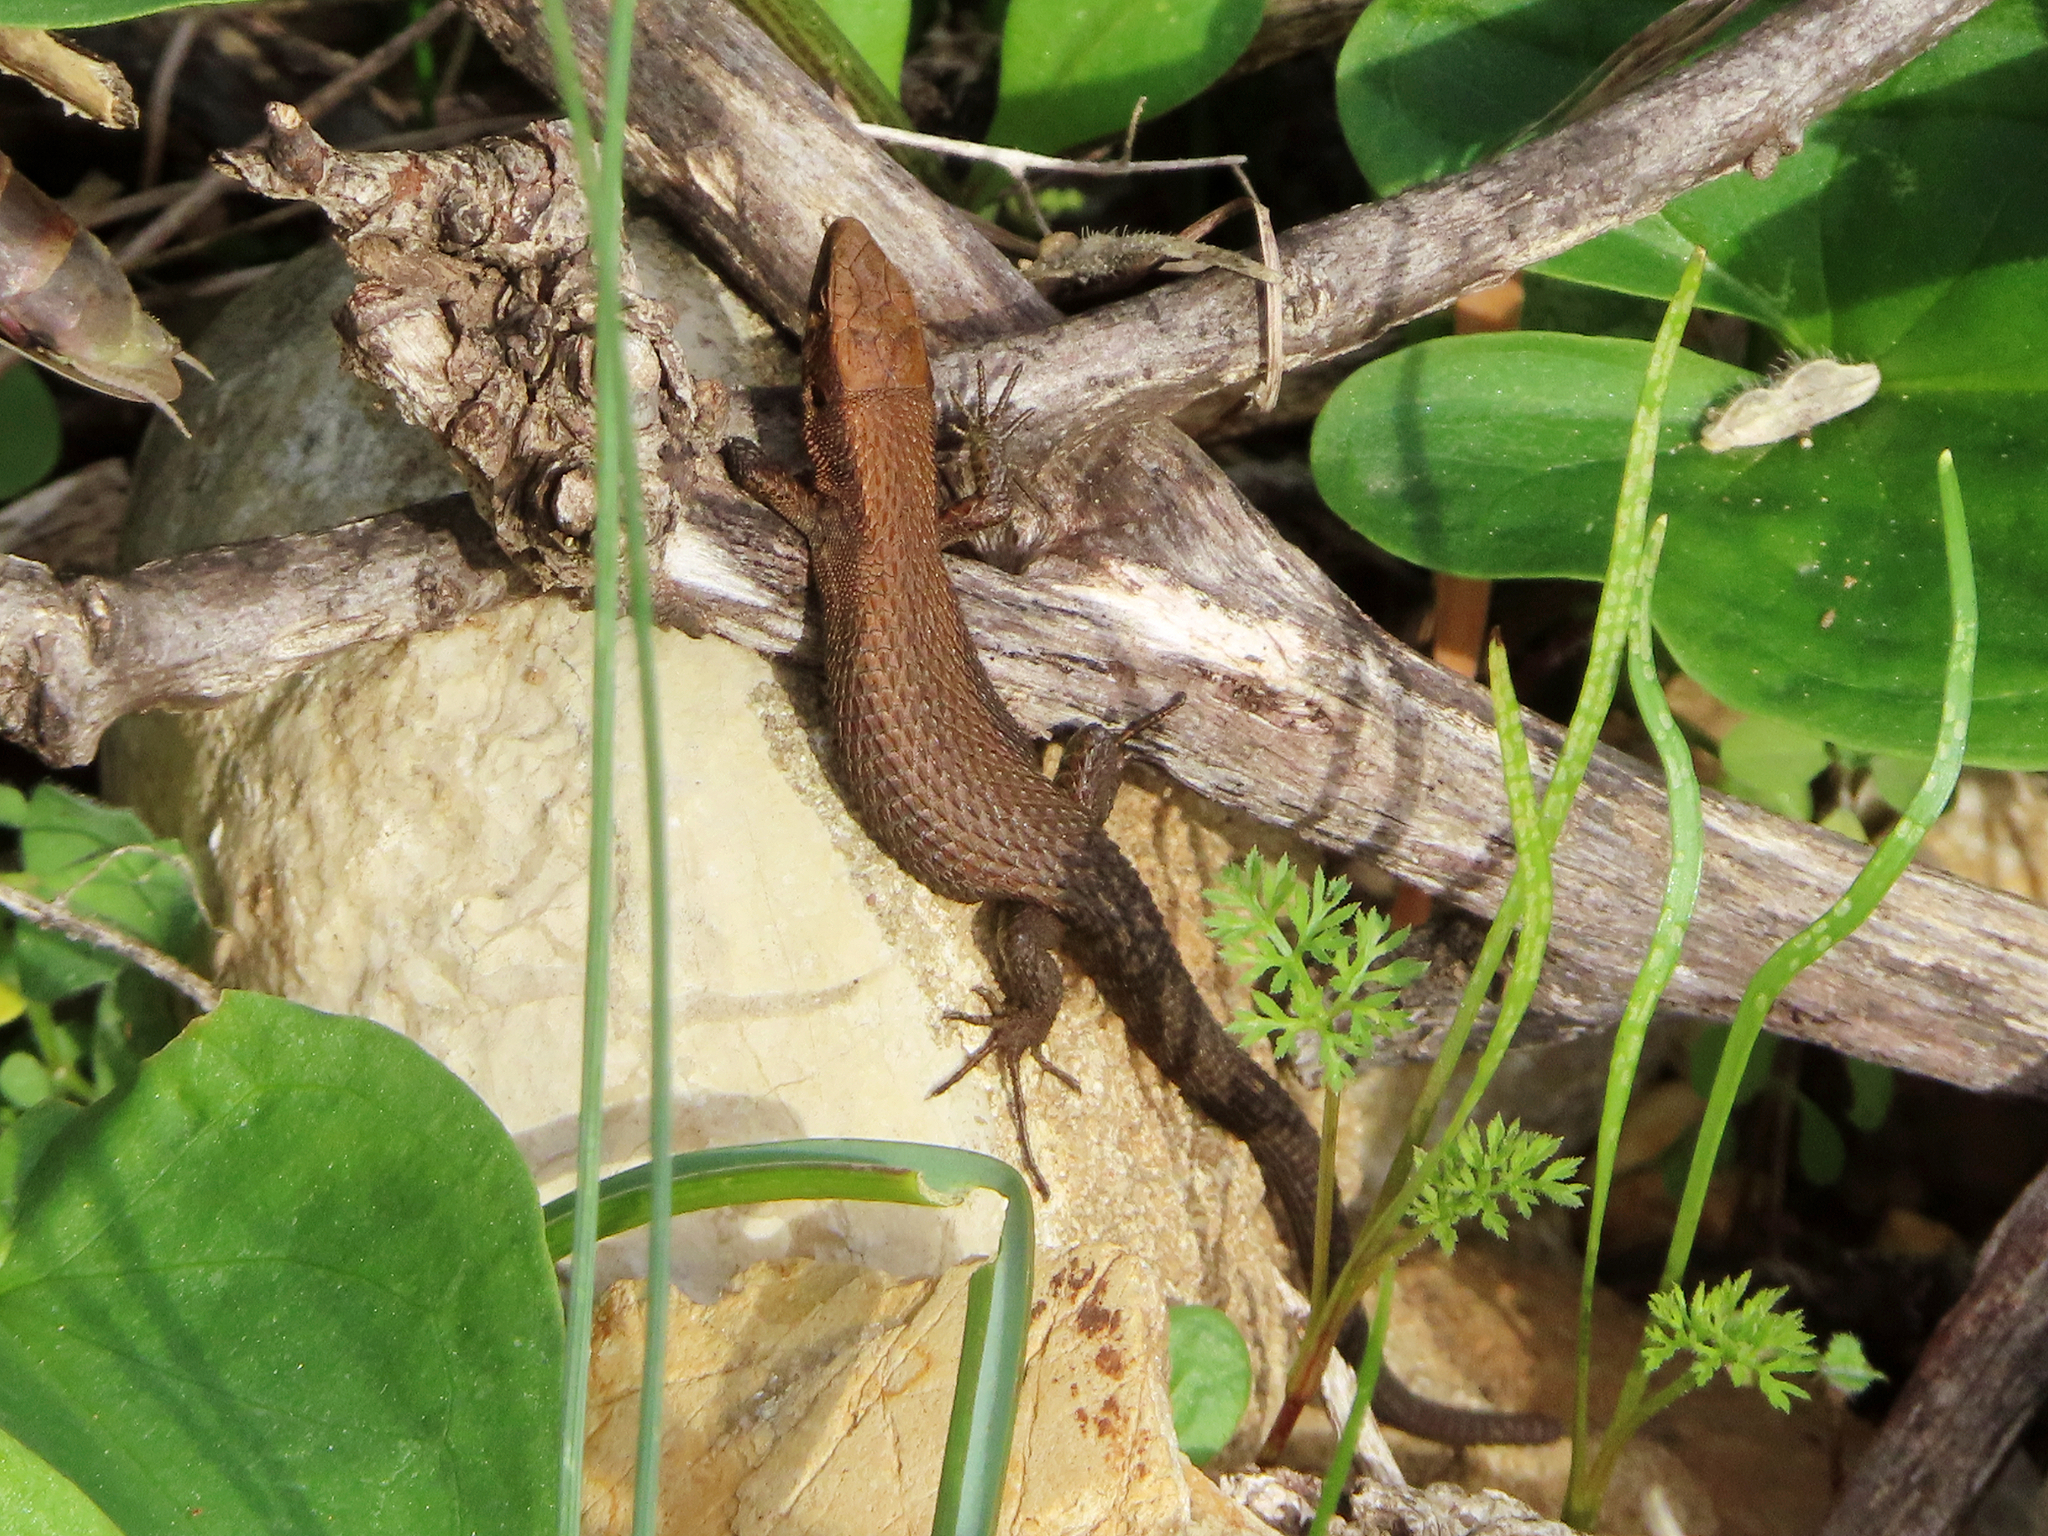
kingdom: Animalia
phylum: Chordata
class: Squamata
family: Lacertidae
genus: Algyroides
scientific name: Algyroides moreoticus
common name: Greek algyroides
